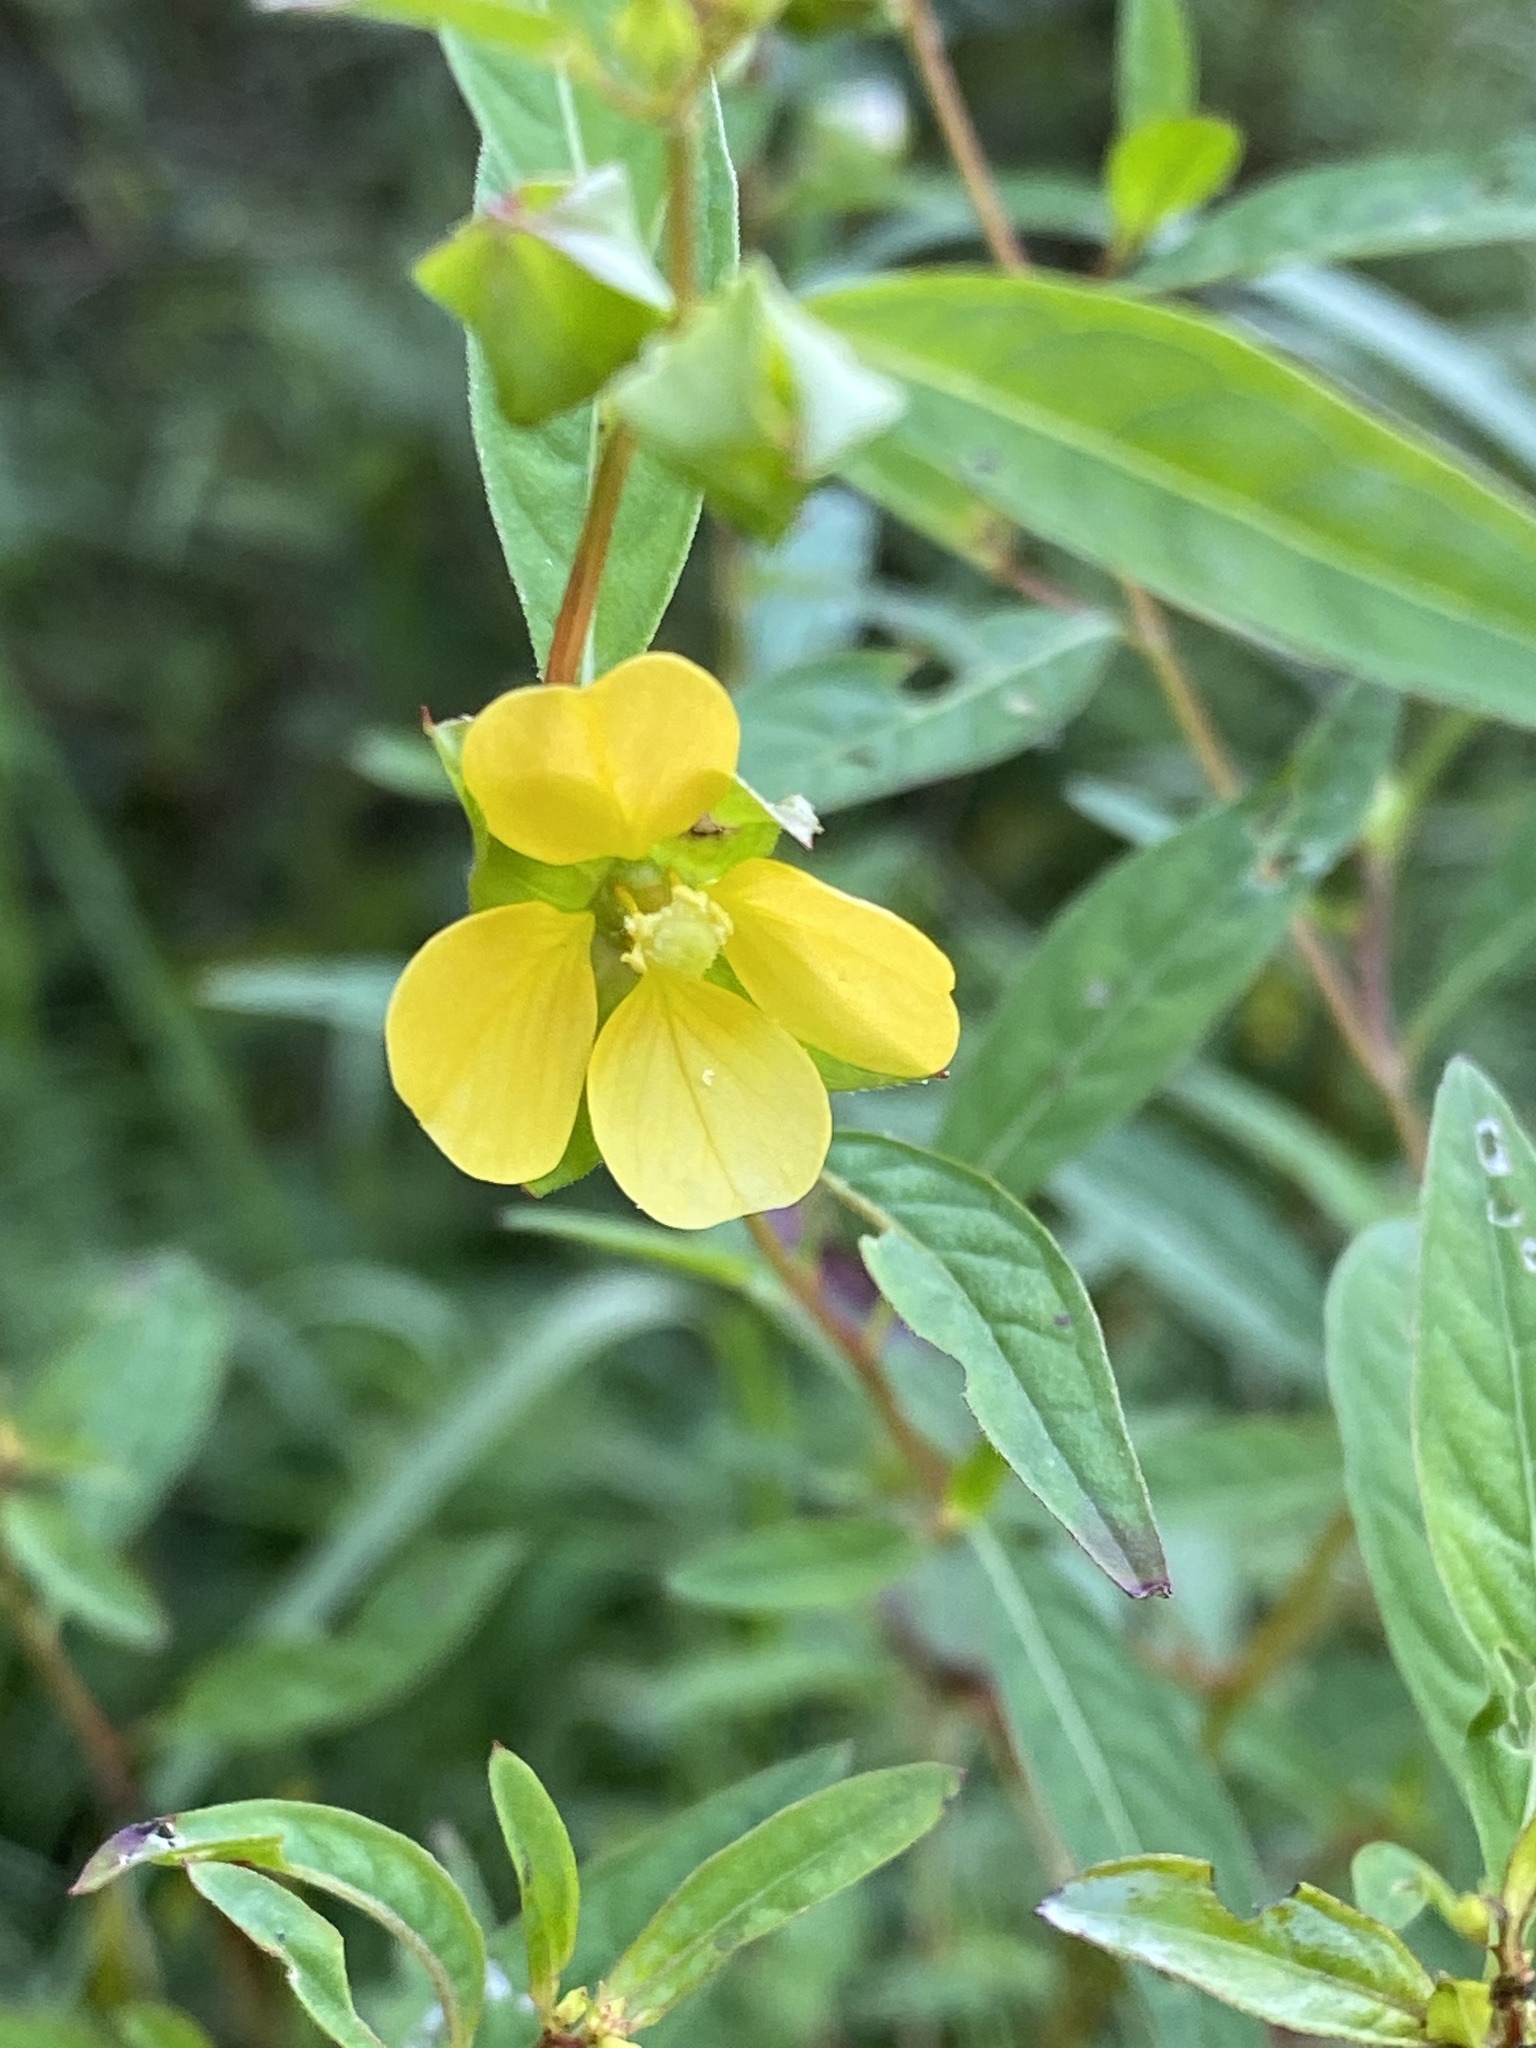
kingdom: Plantae
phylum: Tracheophyta
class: Magnoliopsida
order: Myrtales
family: Onagraceae
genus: Ludwigia
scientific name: Ludwigia alternifolia
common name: Rattlebox
